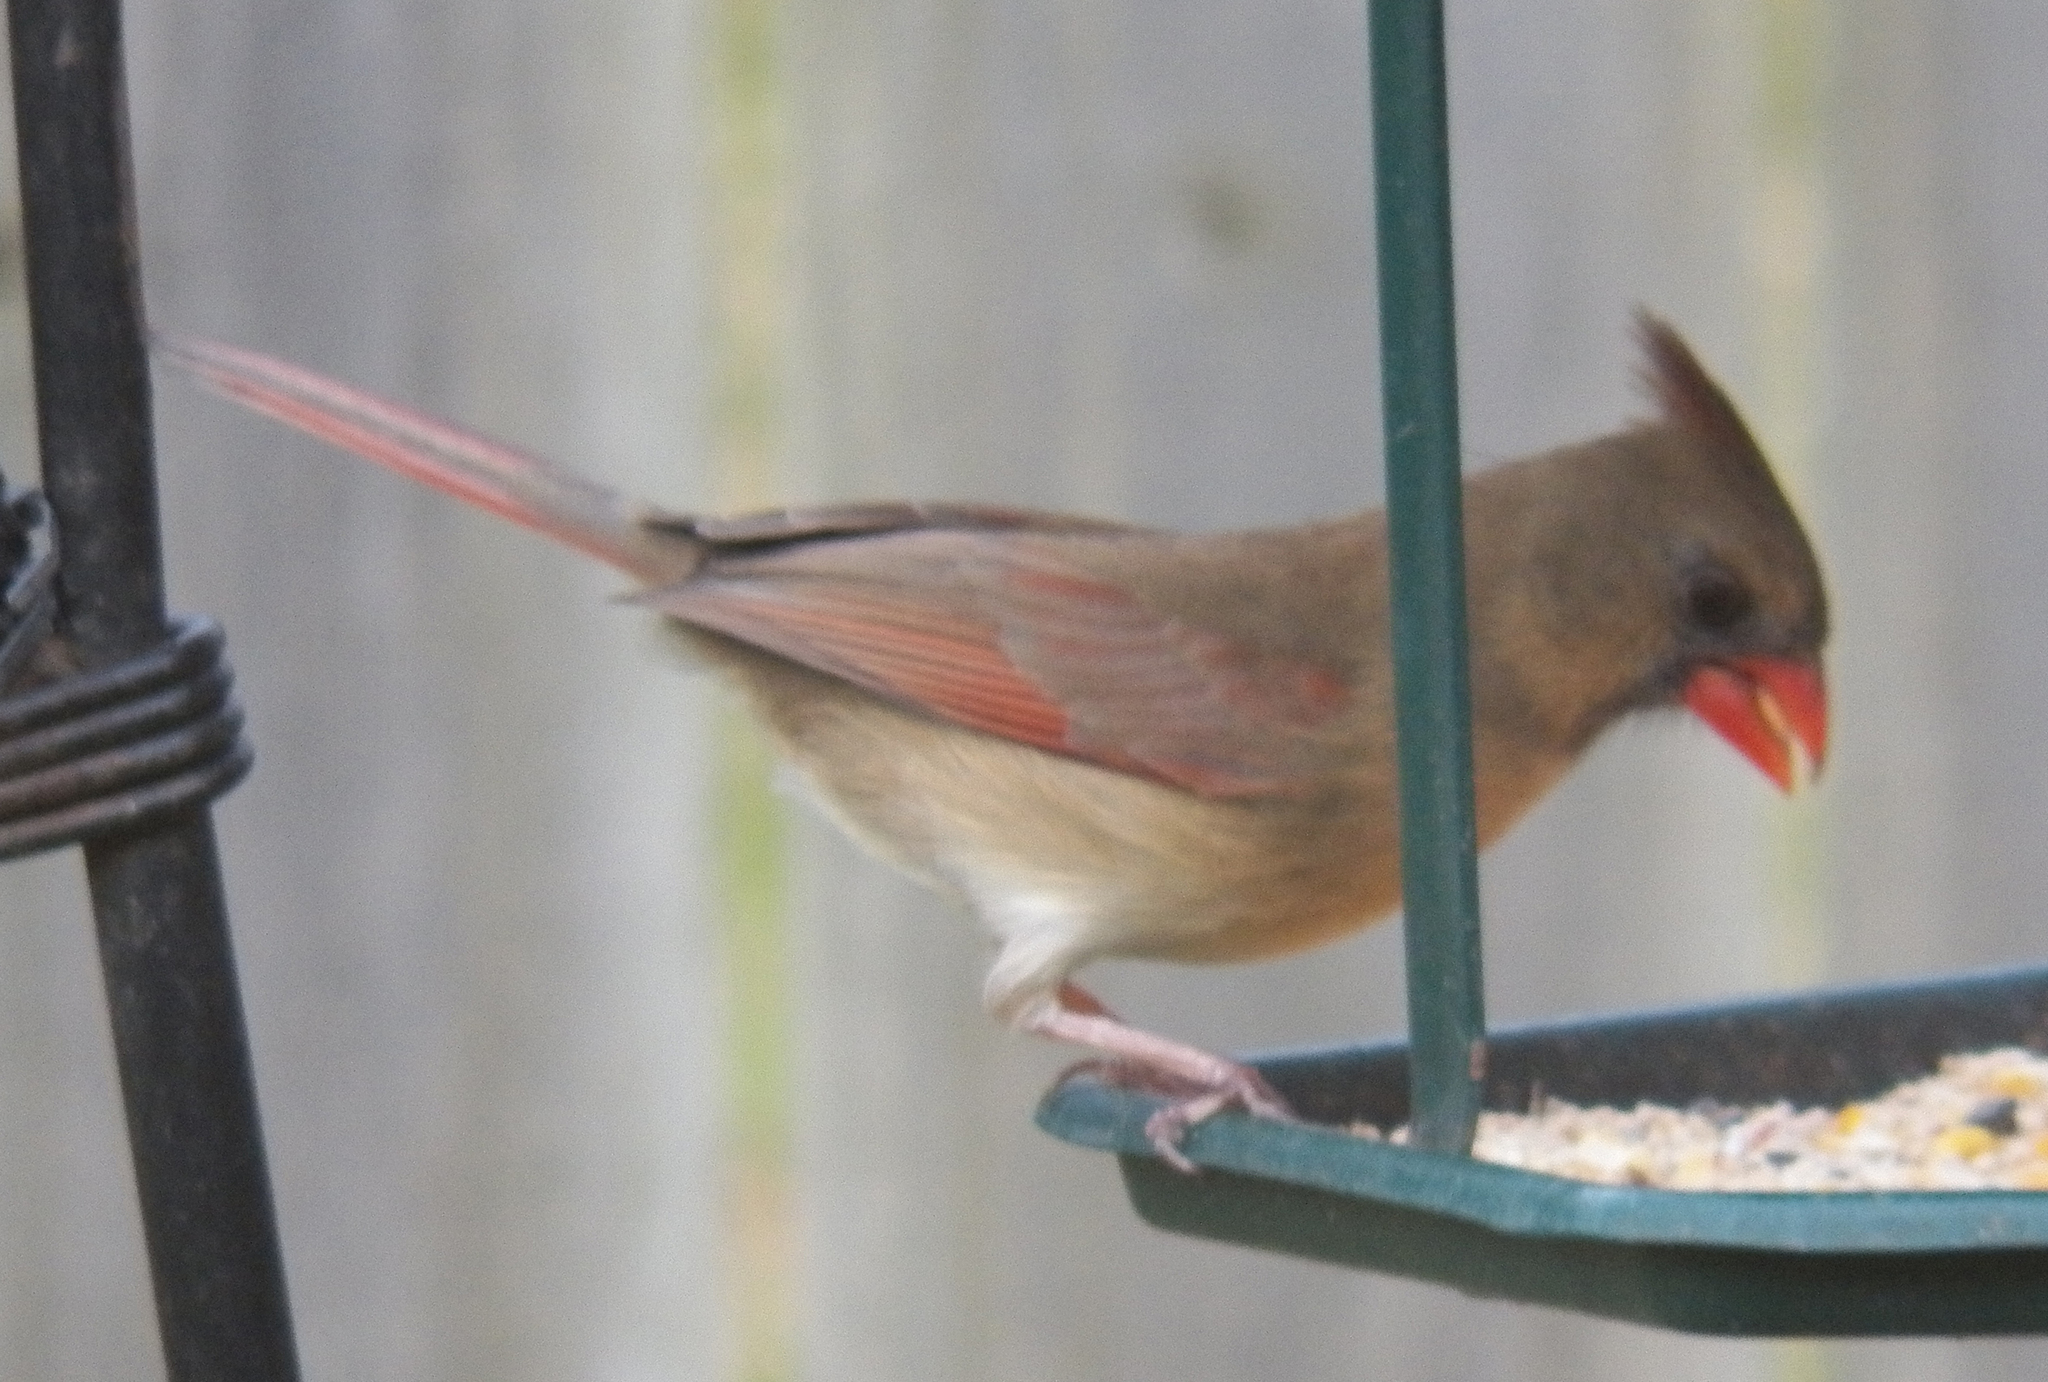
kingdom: Animalia
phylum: Chordata
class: Aves
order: Passeriformes
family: Cardinalidae
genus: Cardinalis
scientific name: Cardinalis cardinalis
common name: Northern cardinal
